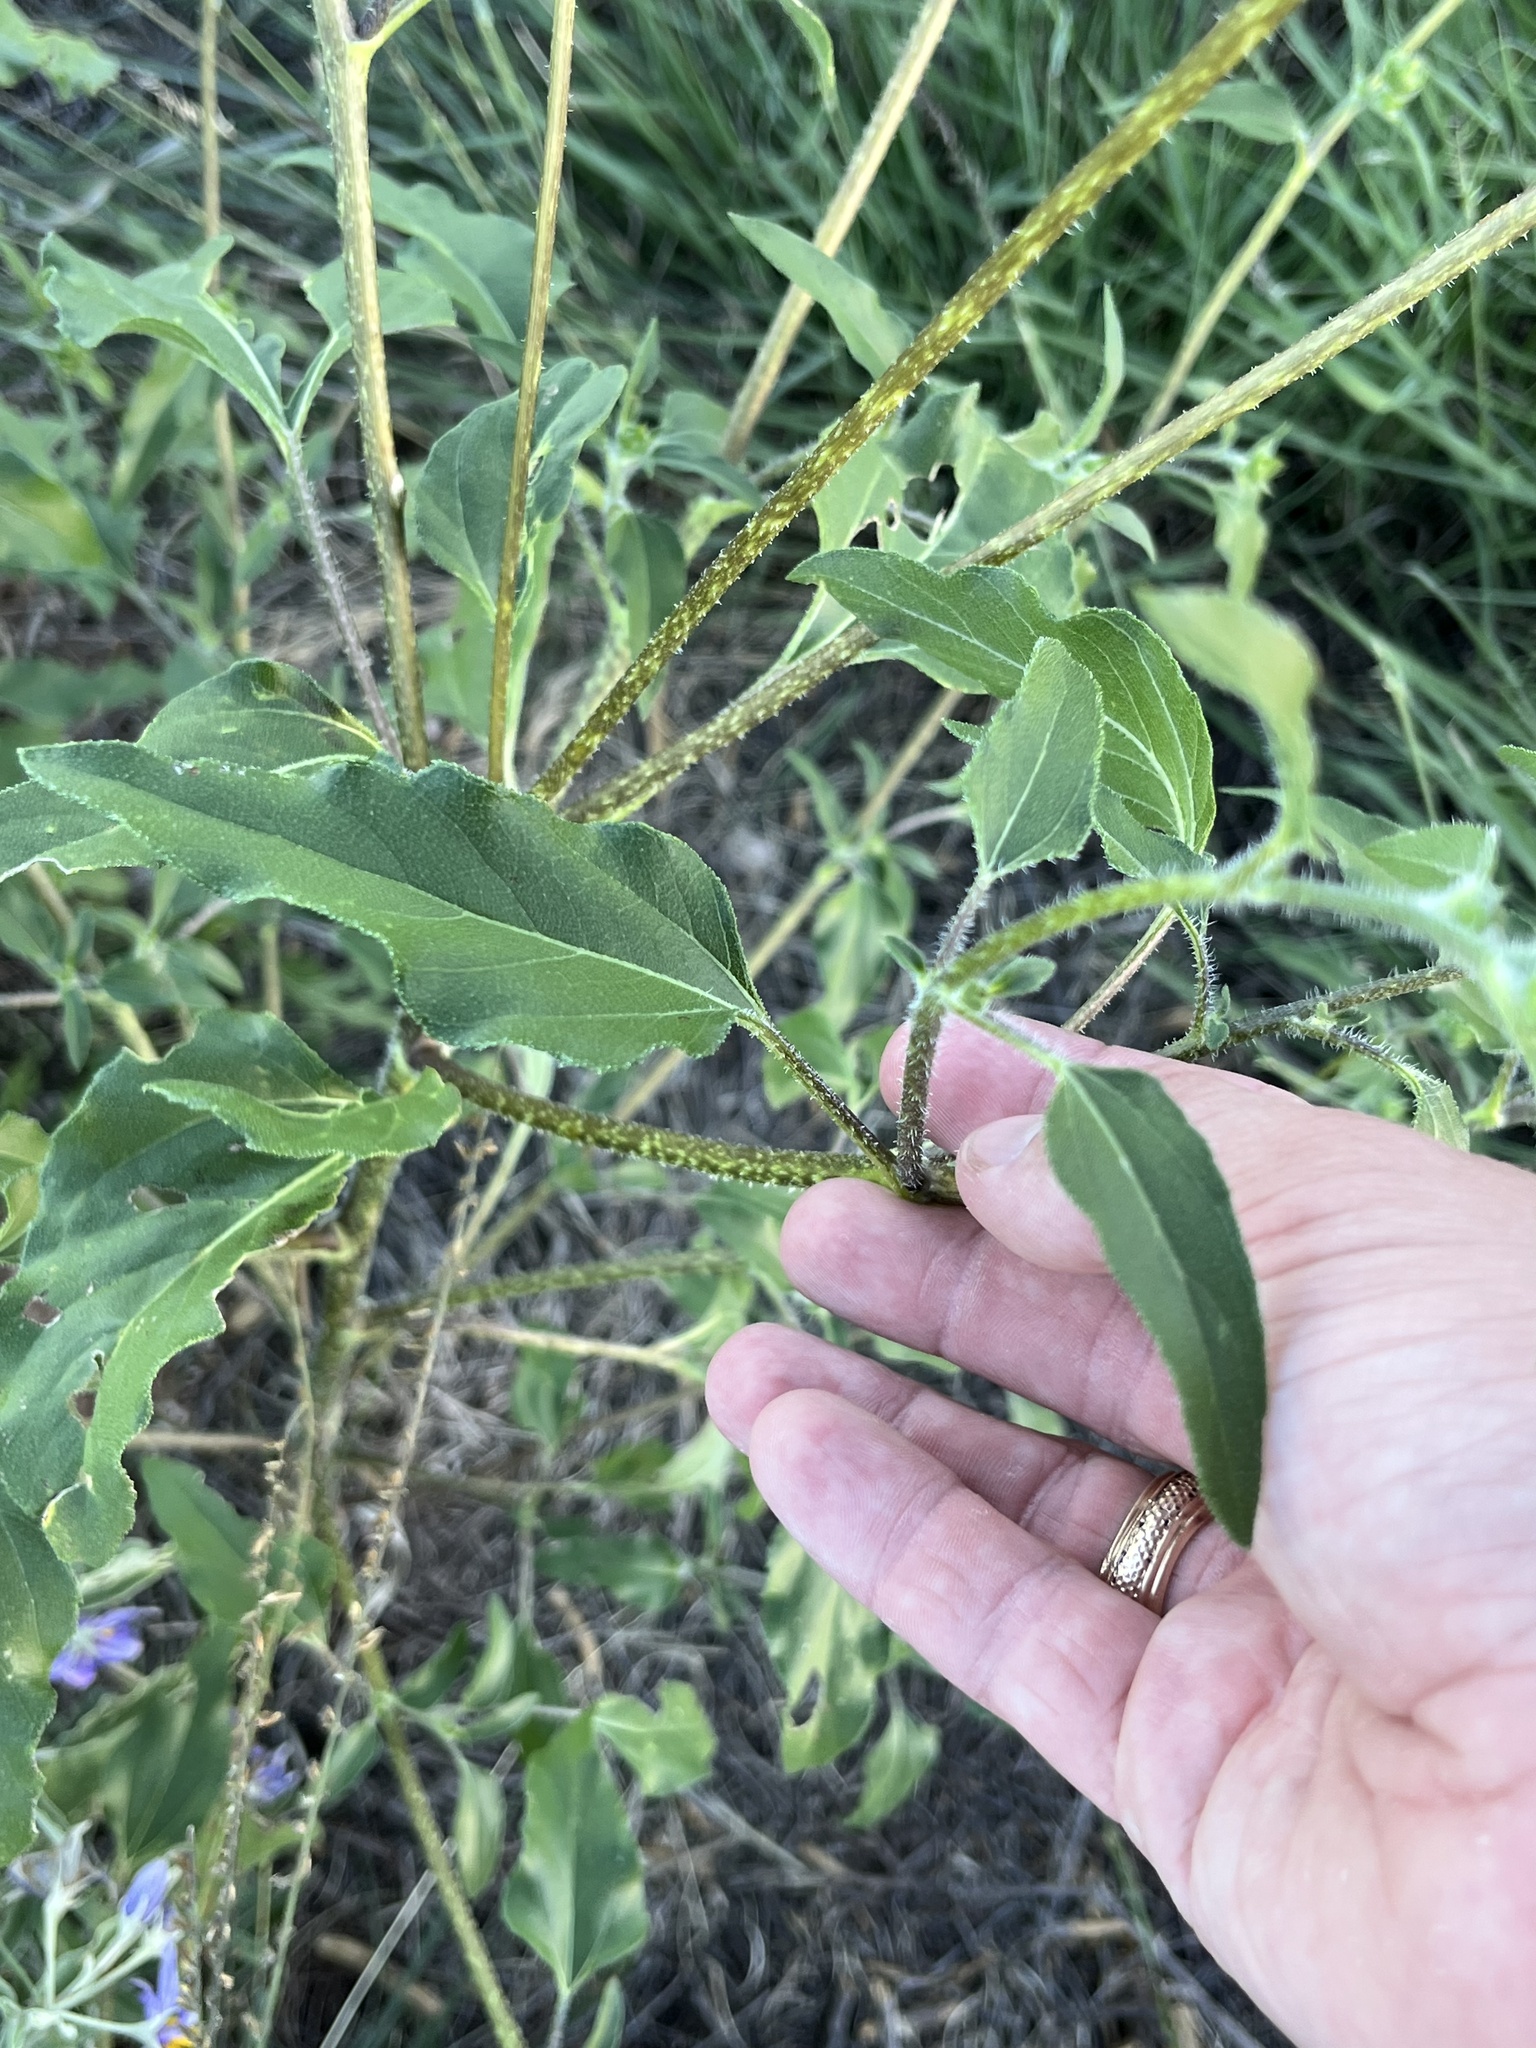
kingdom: Plantae
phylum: Tracheophyta
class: Magnoliopsida
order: Asterales
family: Asteraceae
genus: Helianthus
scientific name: Helianthus petiolaris
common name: Lesser sunflower
